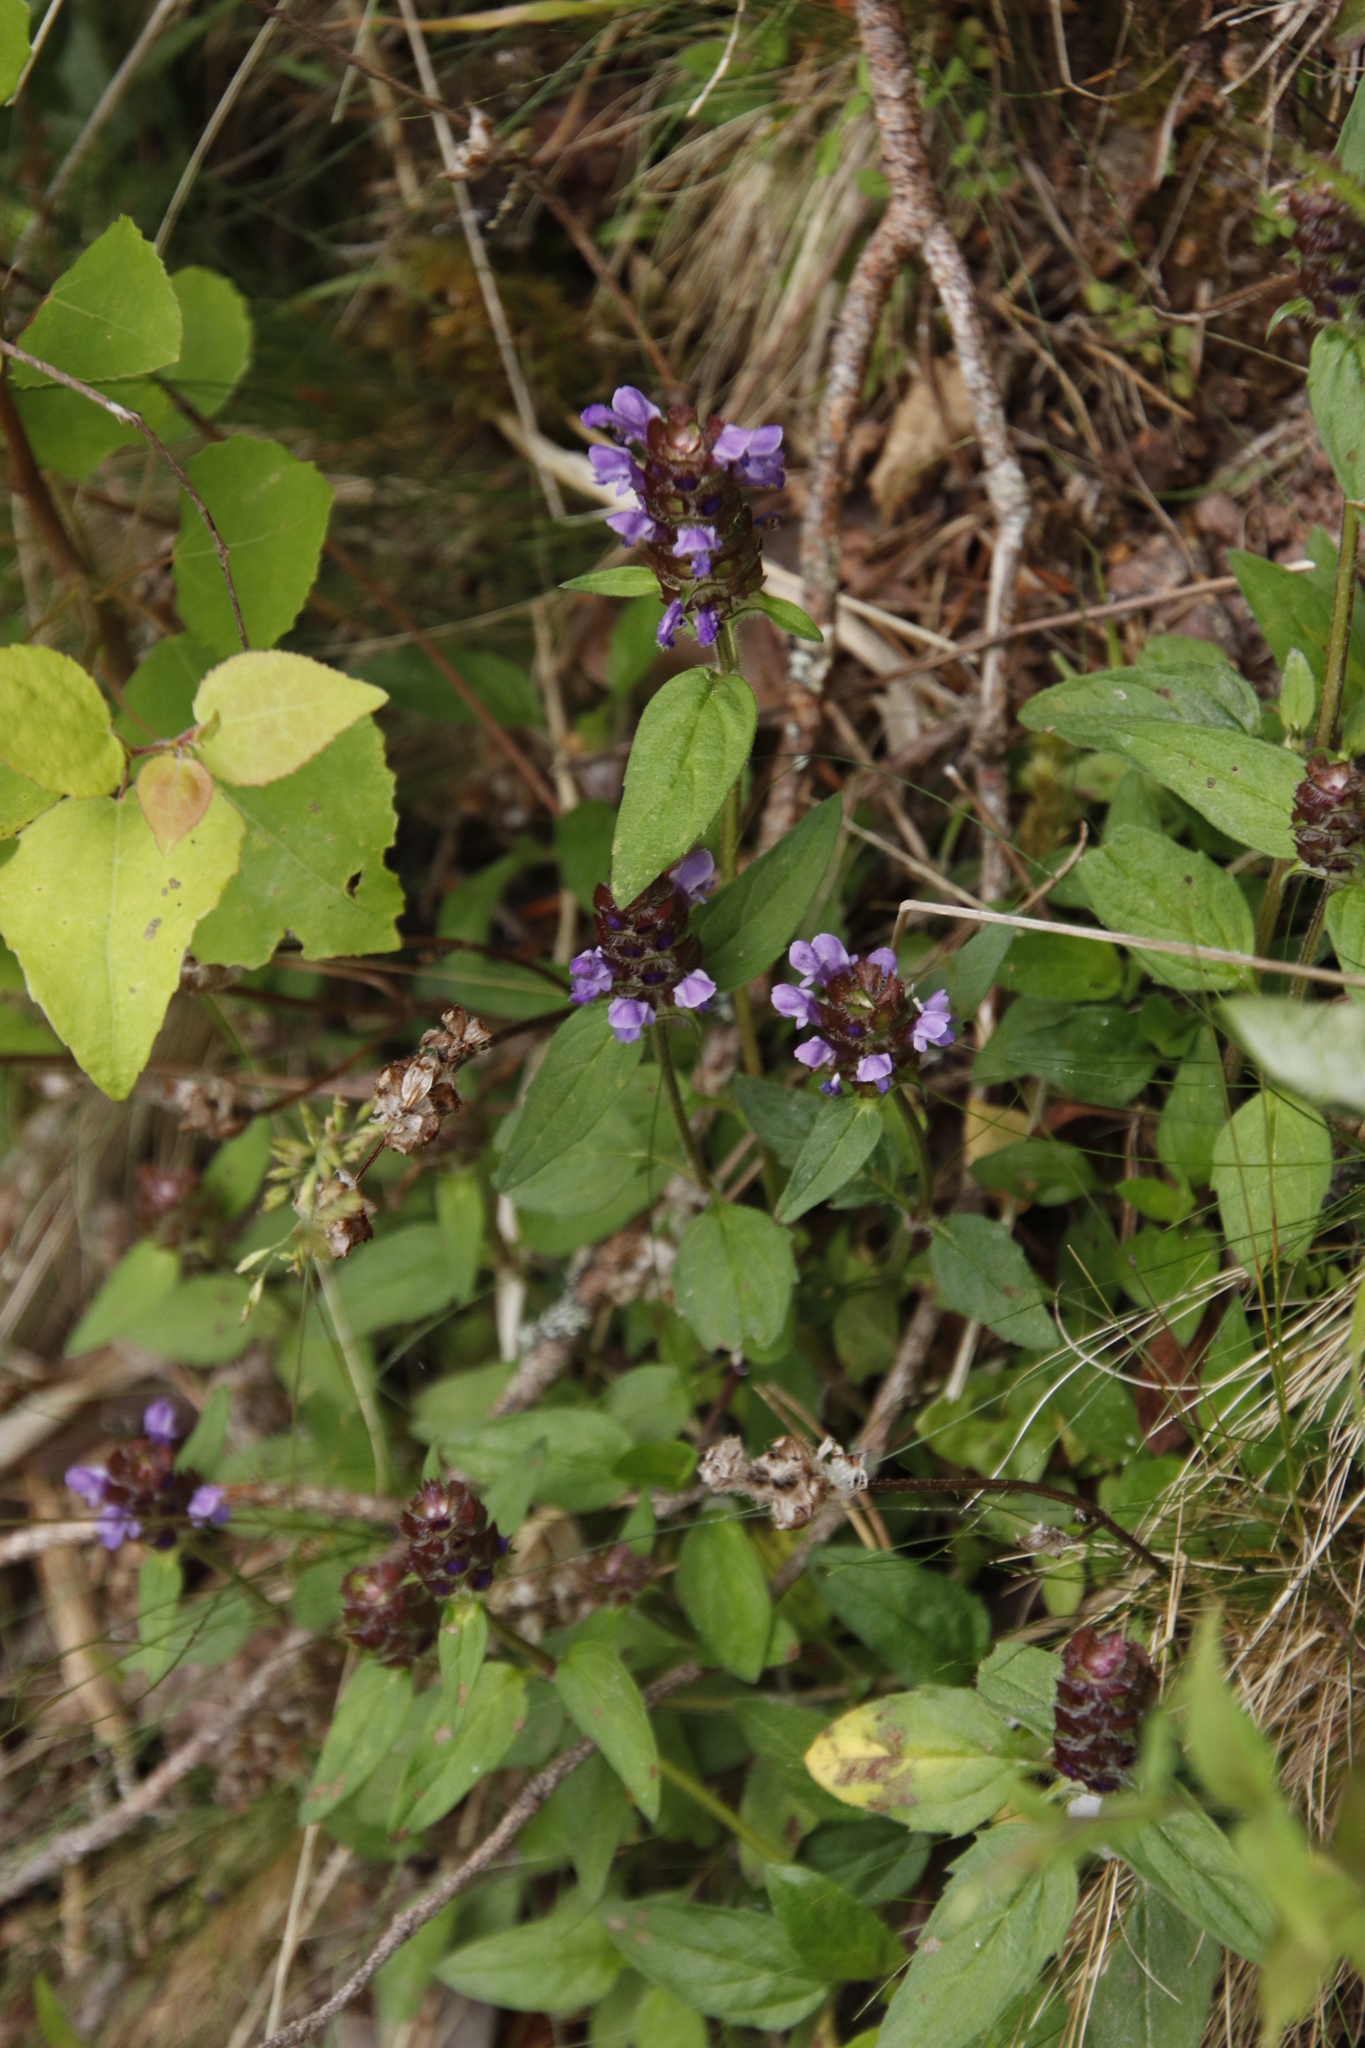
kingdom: Plantae
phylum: Tracheophyta
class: Magnoliopsida
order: Lamiales
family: Lamiaceae
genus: Prunella
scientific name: Prunella vulgaris
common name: Heal-all
